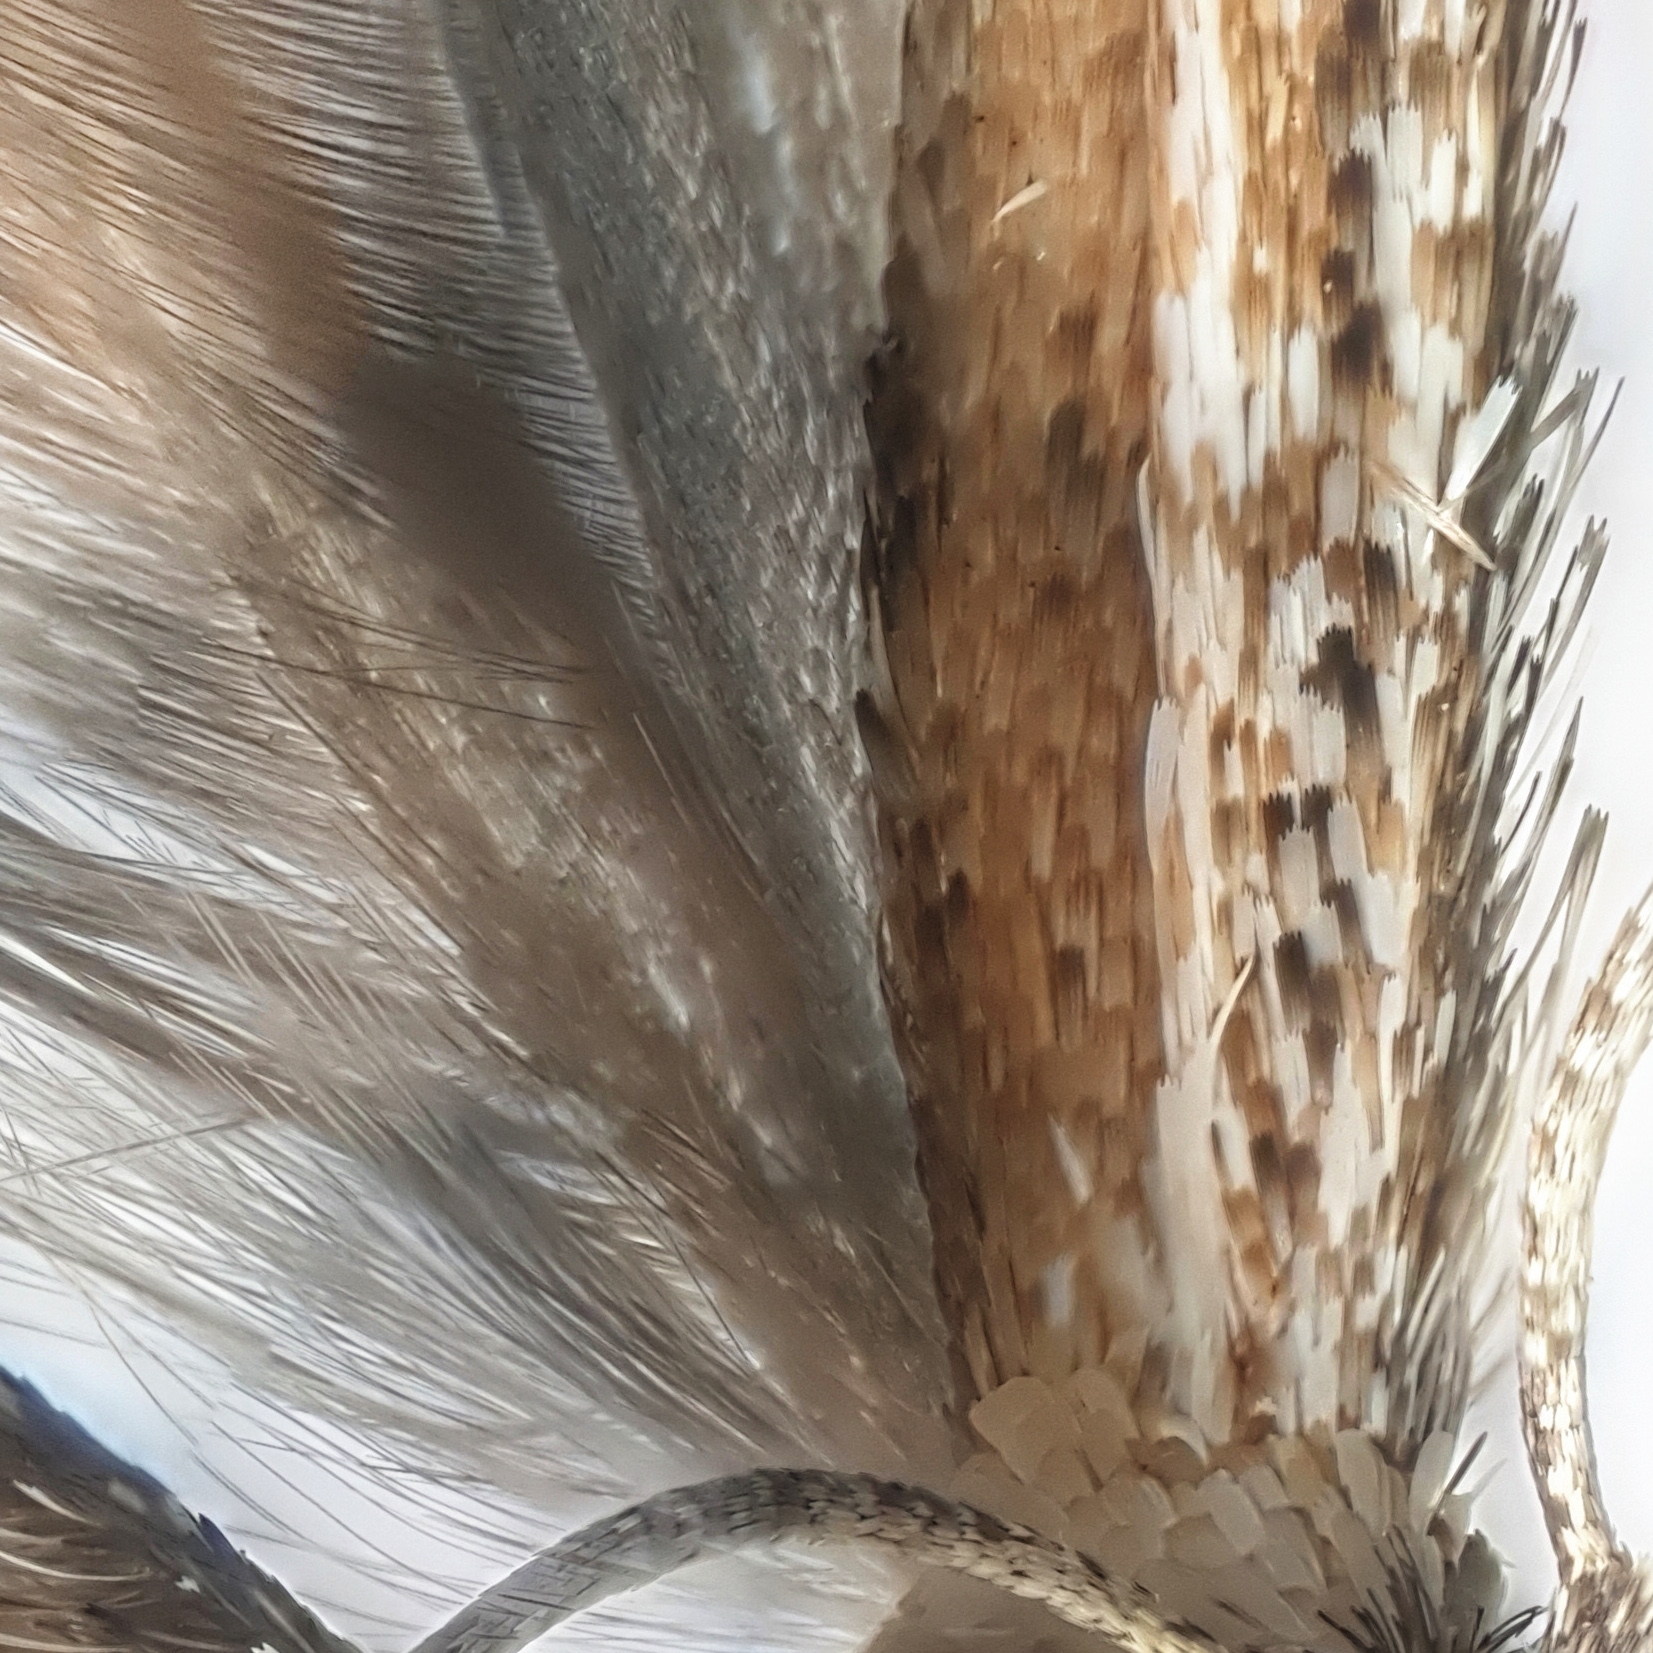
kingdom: Animalia
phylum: Arthropoda
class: Insecta
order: Lepidoptera
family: Pterophoridae
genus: Emmelina
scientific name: Emmelina monodactyla
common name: Common plume
